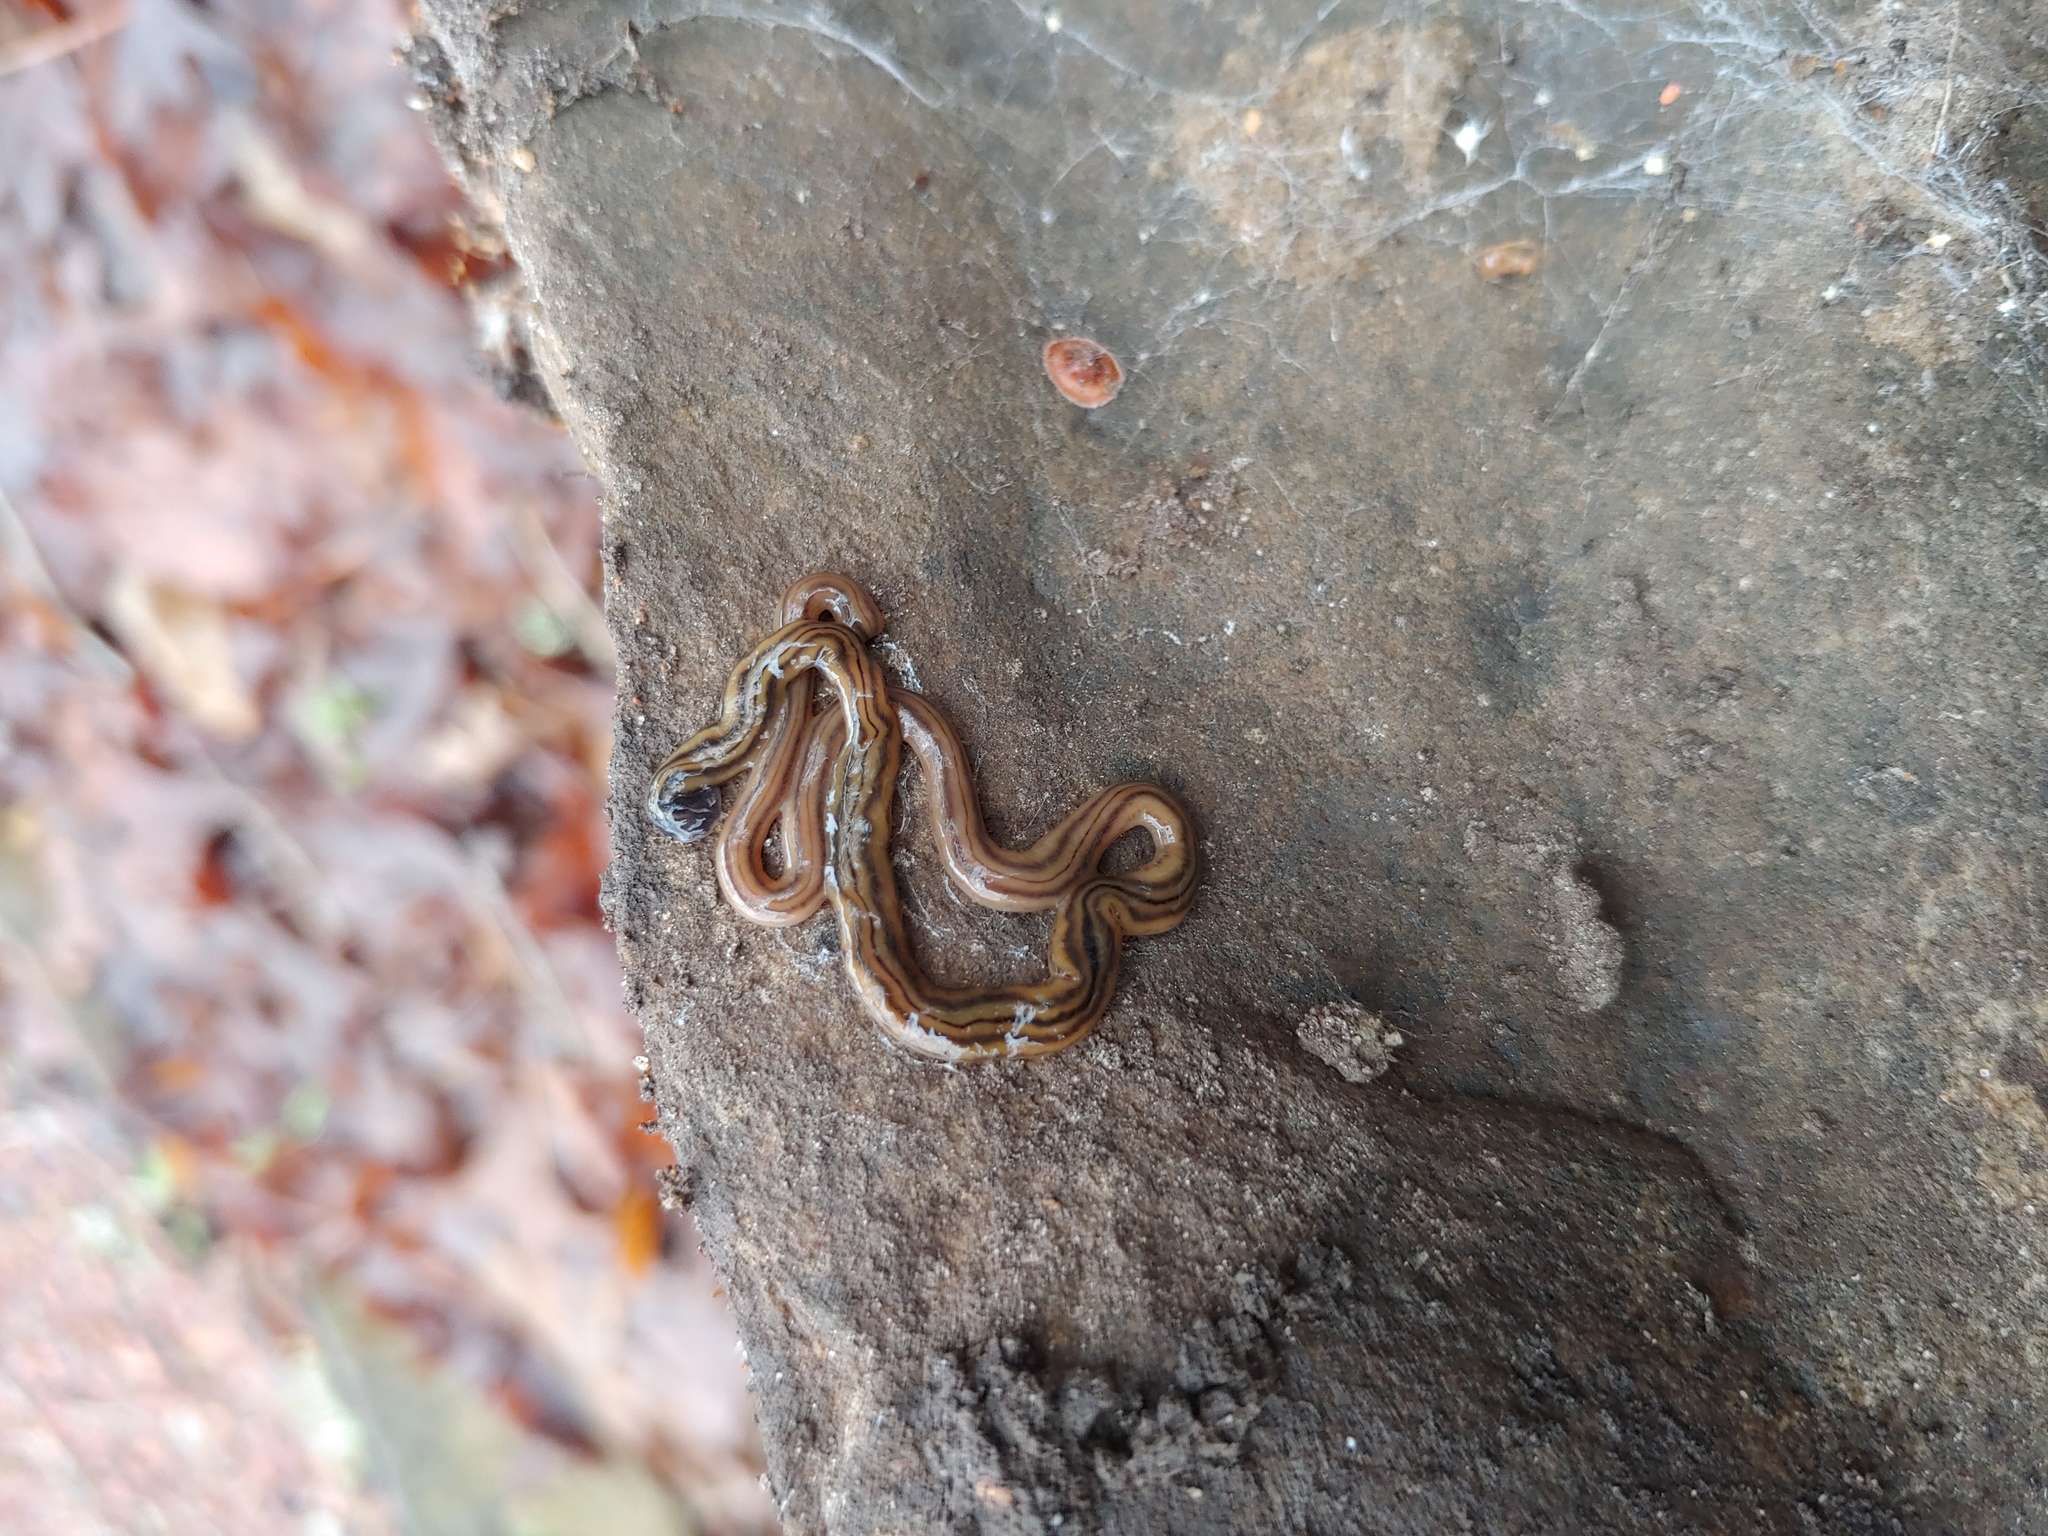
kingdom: Animalia
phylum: Platyhelminthes
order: Tricladida
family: Geoplanidae
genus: Bipalium
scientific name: Bipalium kewense
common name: Hammerhead flatworm
